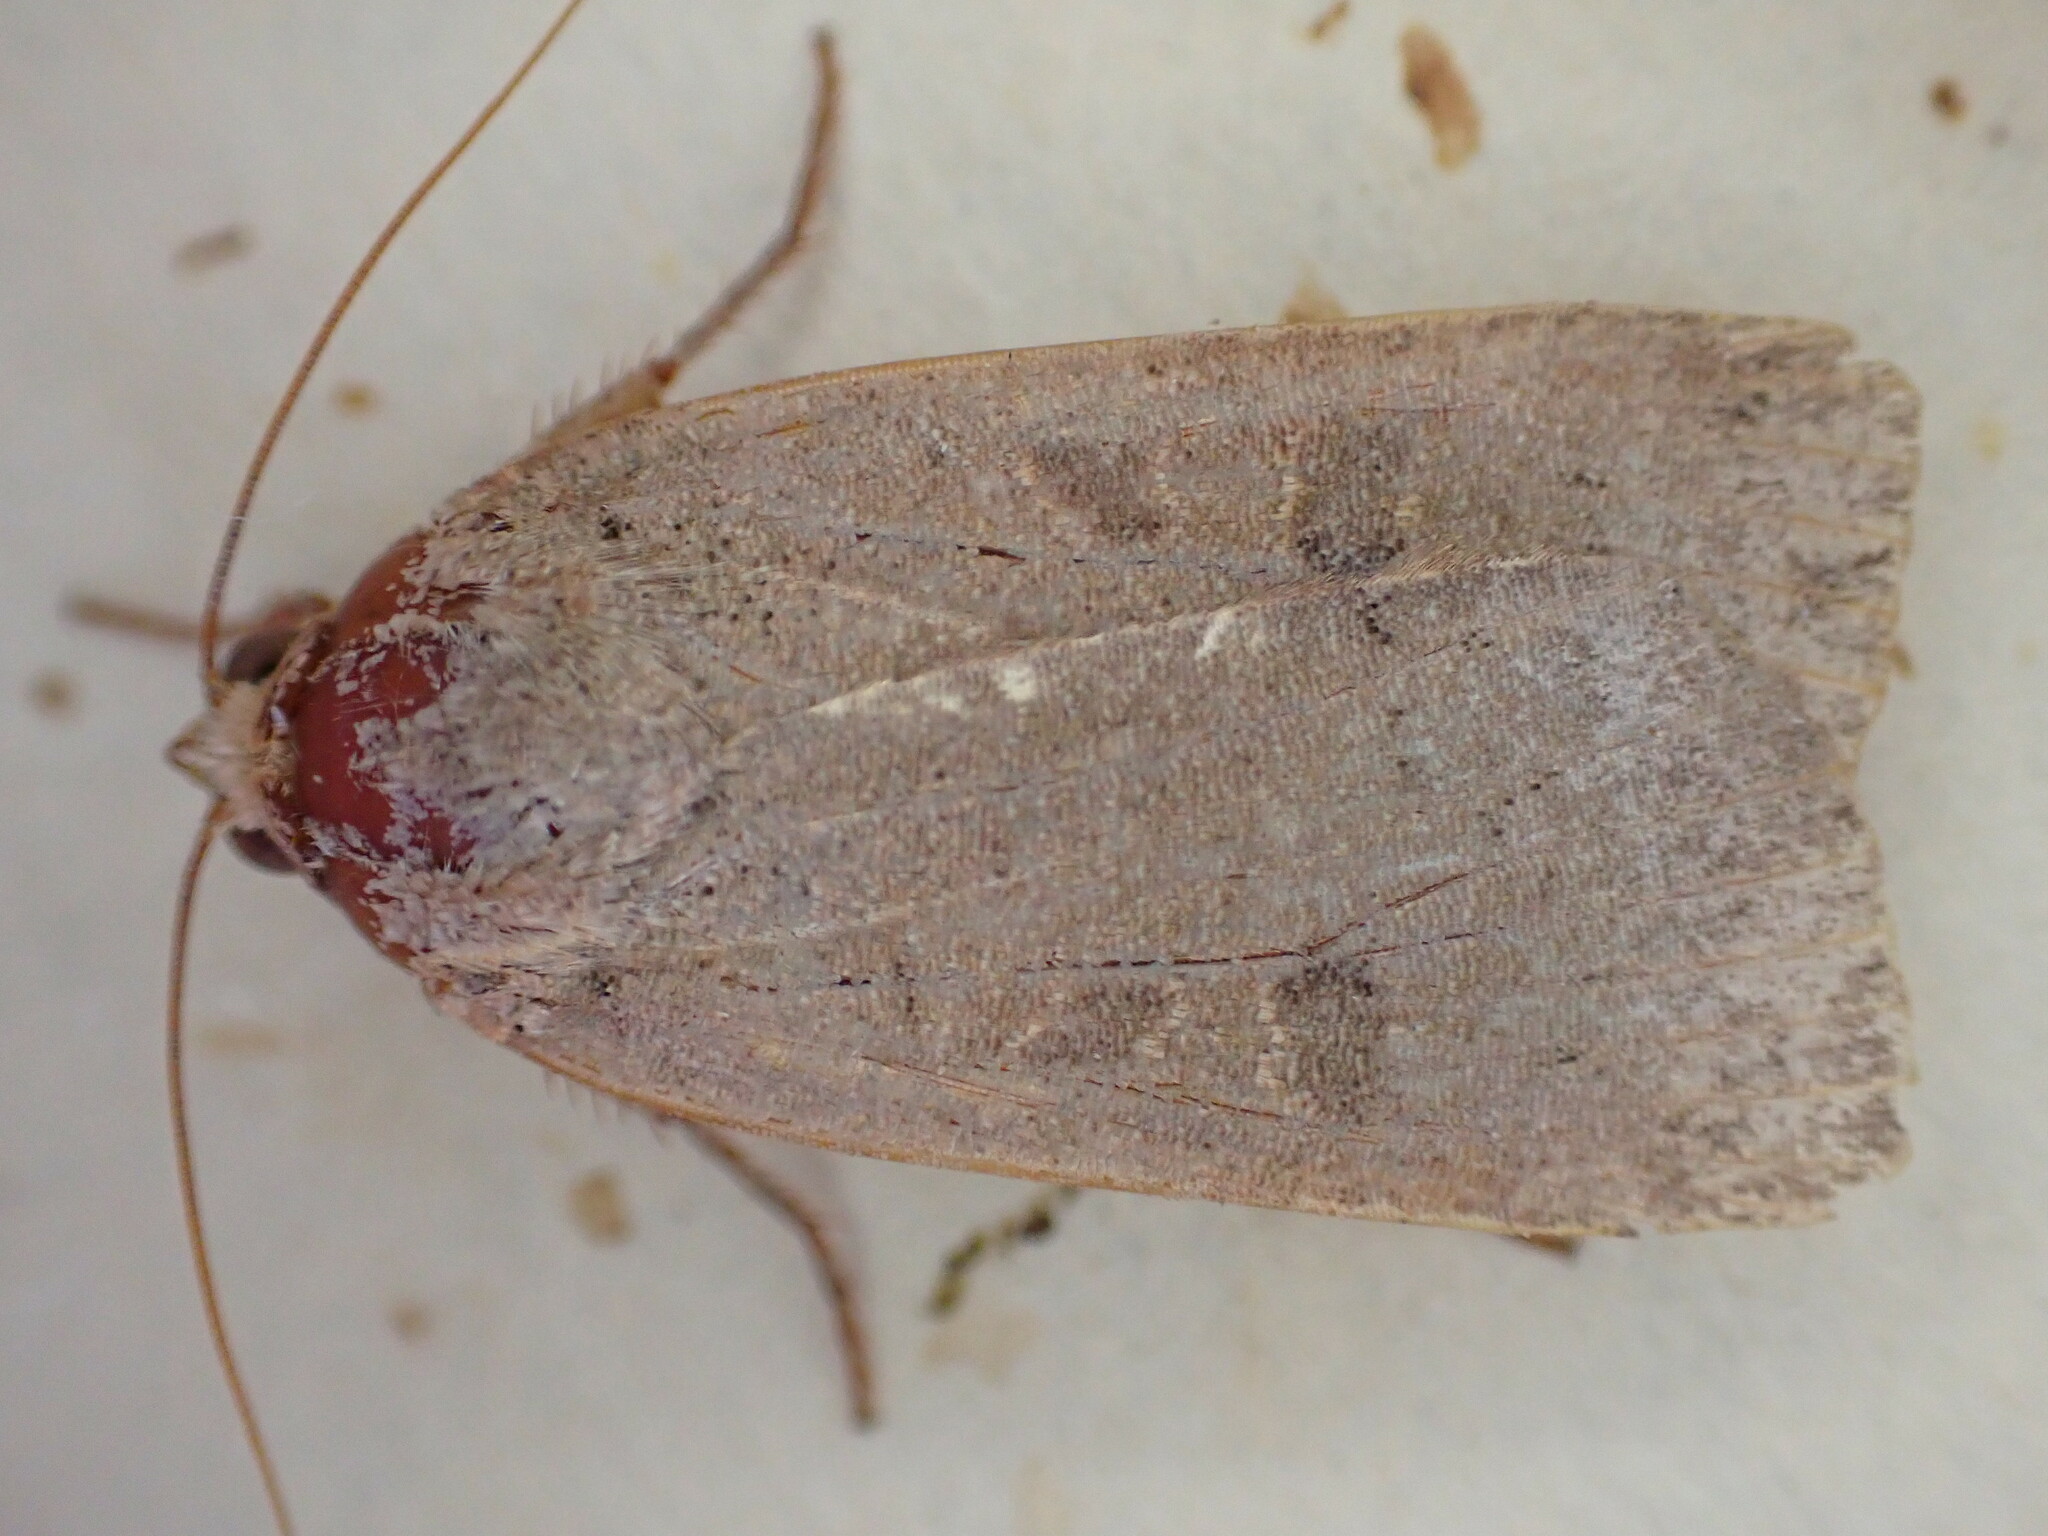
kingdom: Animalia
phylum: Arthropoda
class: Insecta
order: Lepidoptera
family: Noctuidae
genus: Noctua
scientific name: Noctua comes
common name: Lesser yellow underwing
